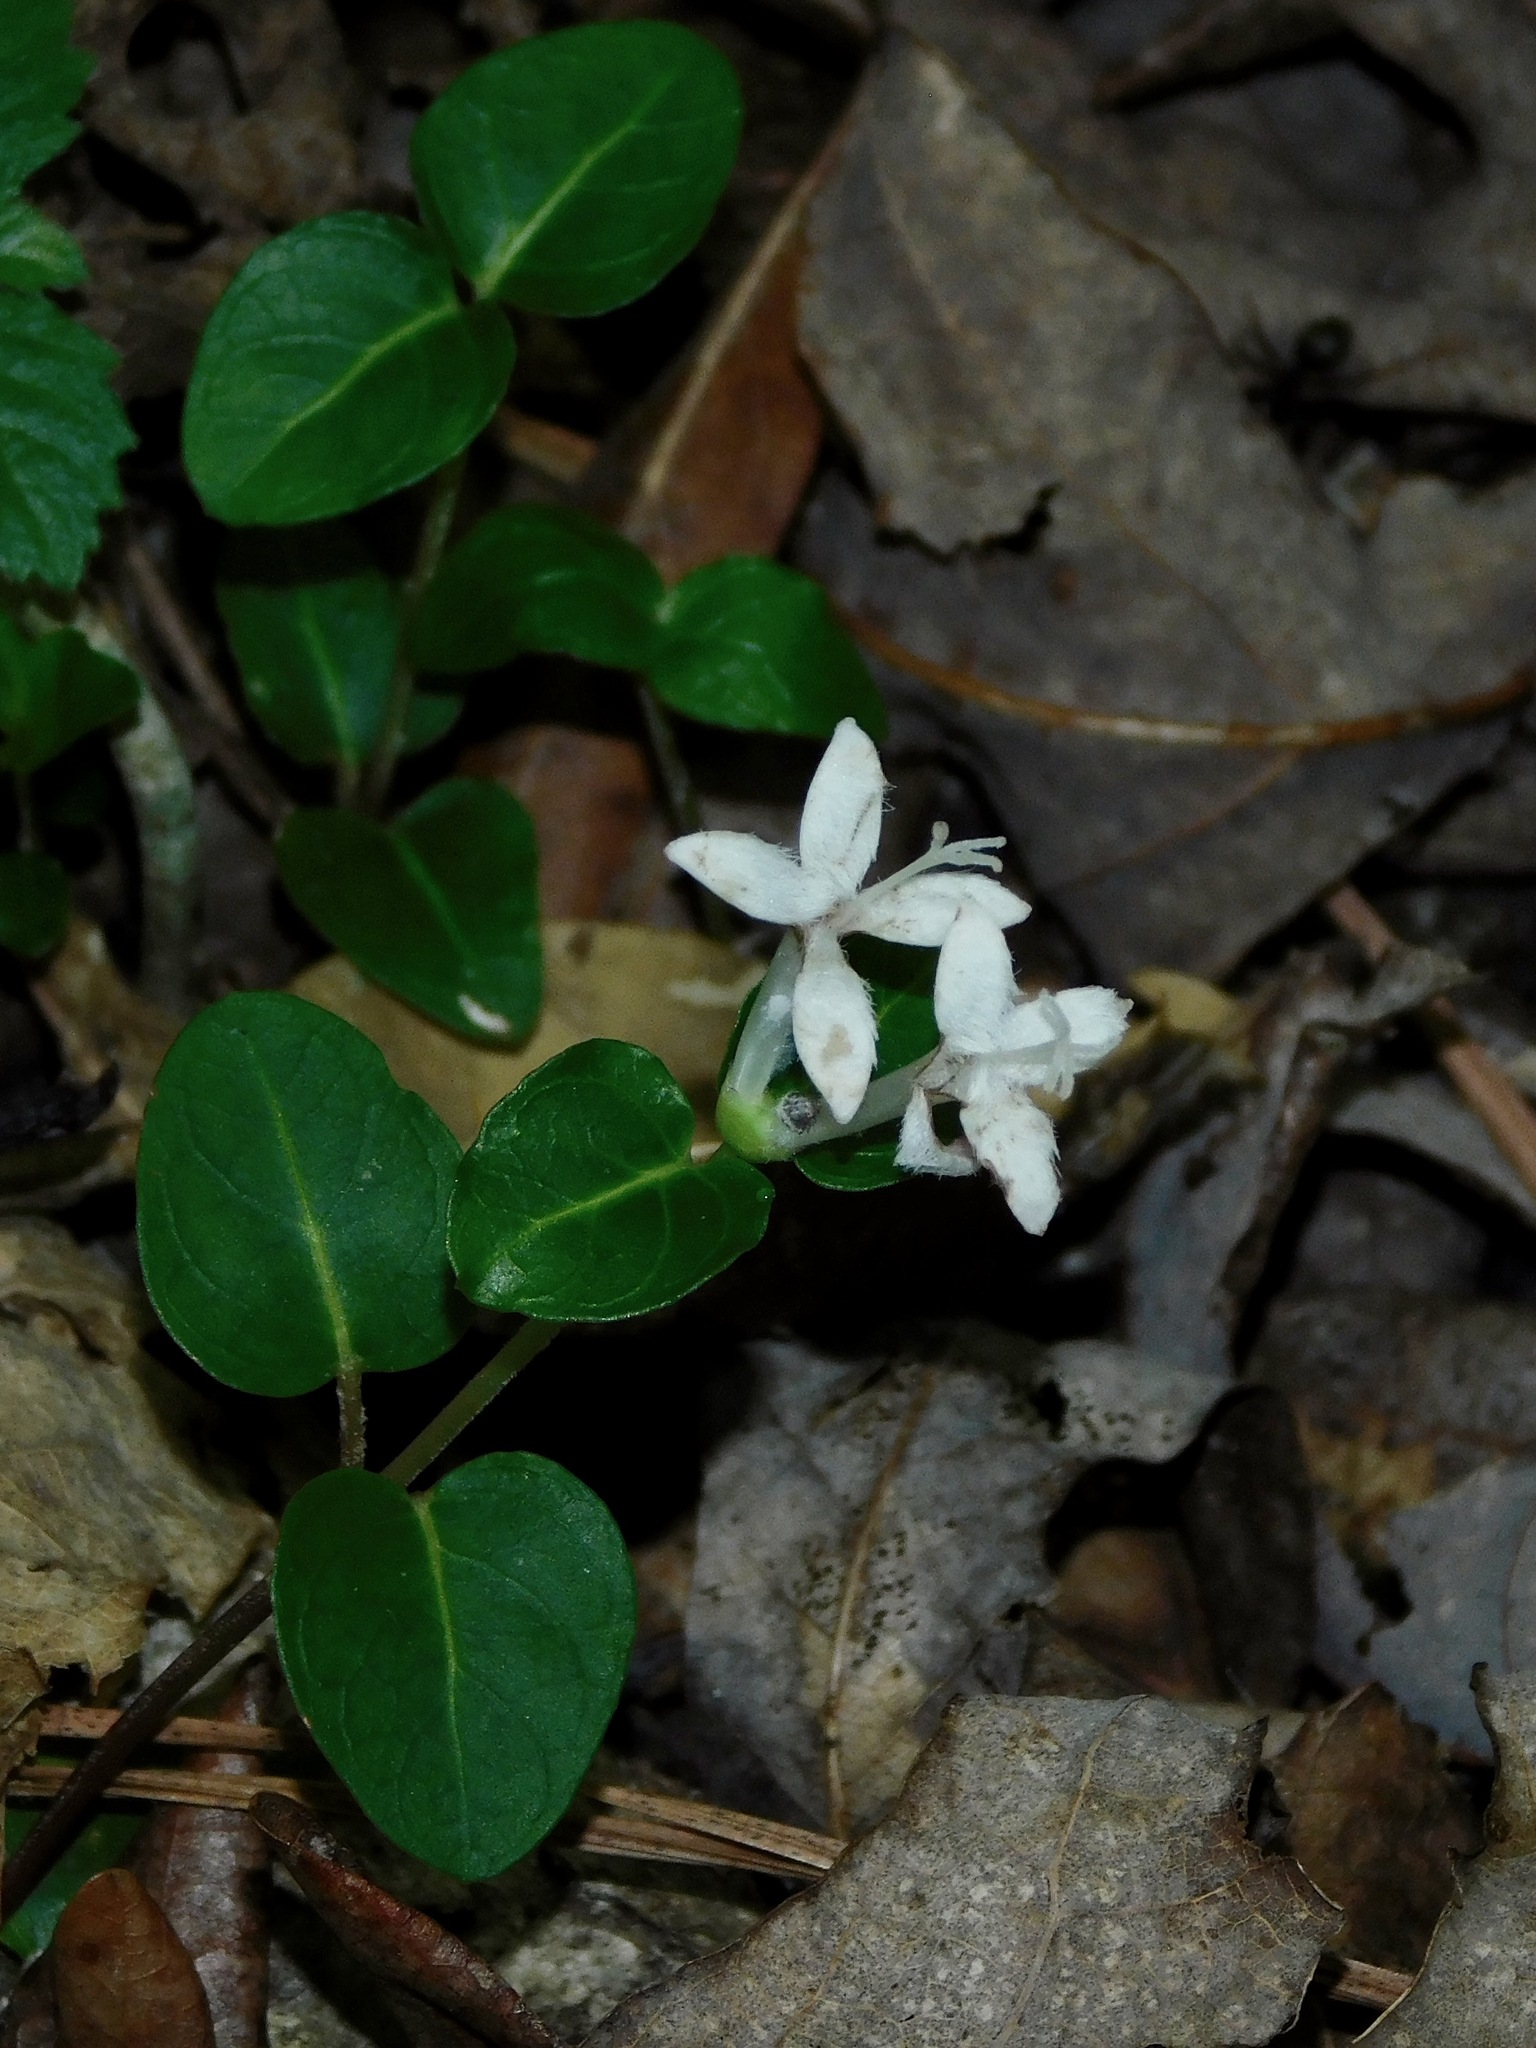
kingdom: Plantae
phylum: Tracheophyta
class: Magnoliopsida
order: Gentianales
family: Rubiaceae
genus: Mitchella
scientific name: Mitchella repens
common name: Partridge-berry
